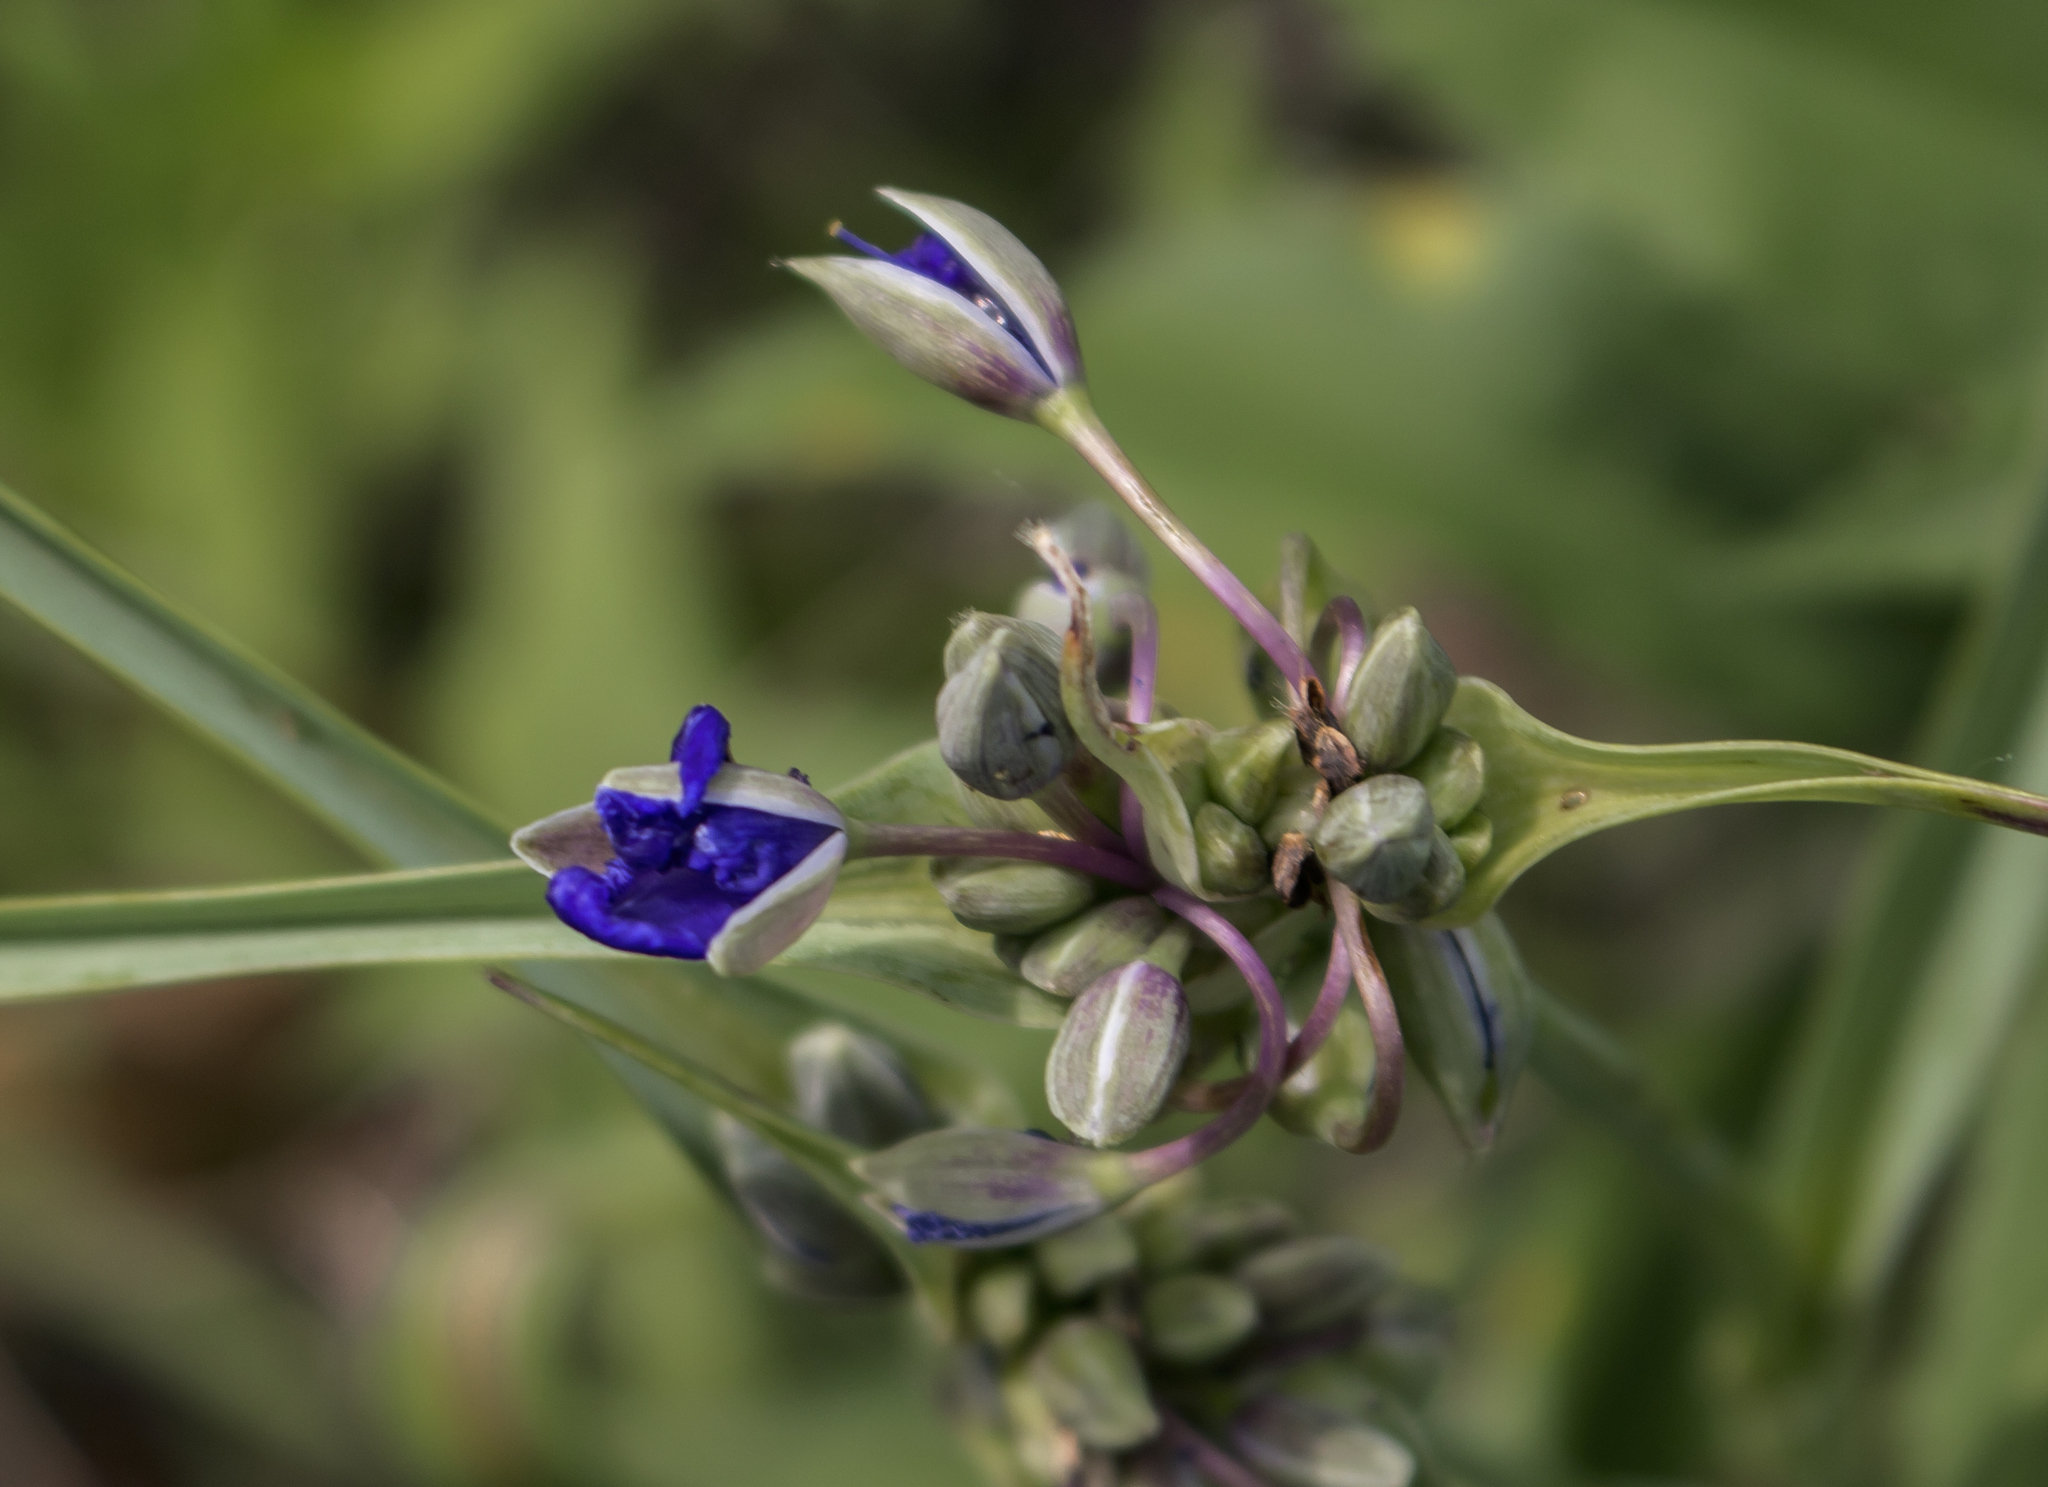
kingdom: Plantae
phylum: Tracheophyta
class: Liliopsida
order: Commelinales
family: Commelinaceae
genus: Tradescantia
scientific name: Tradescantia ohiensis
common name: Ohio spiderwort
